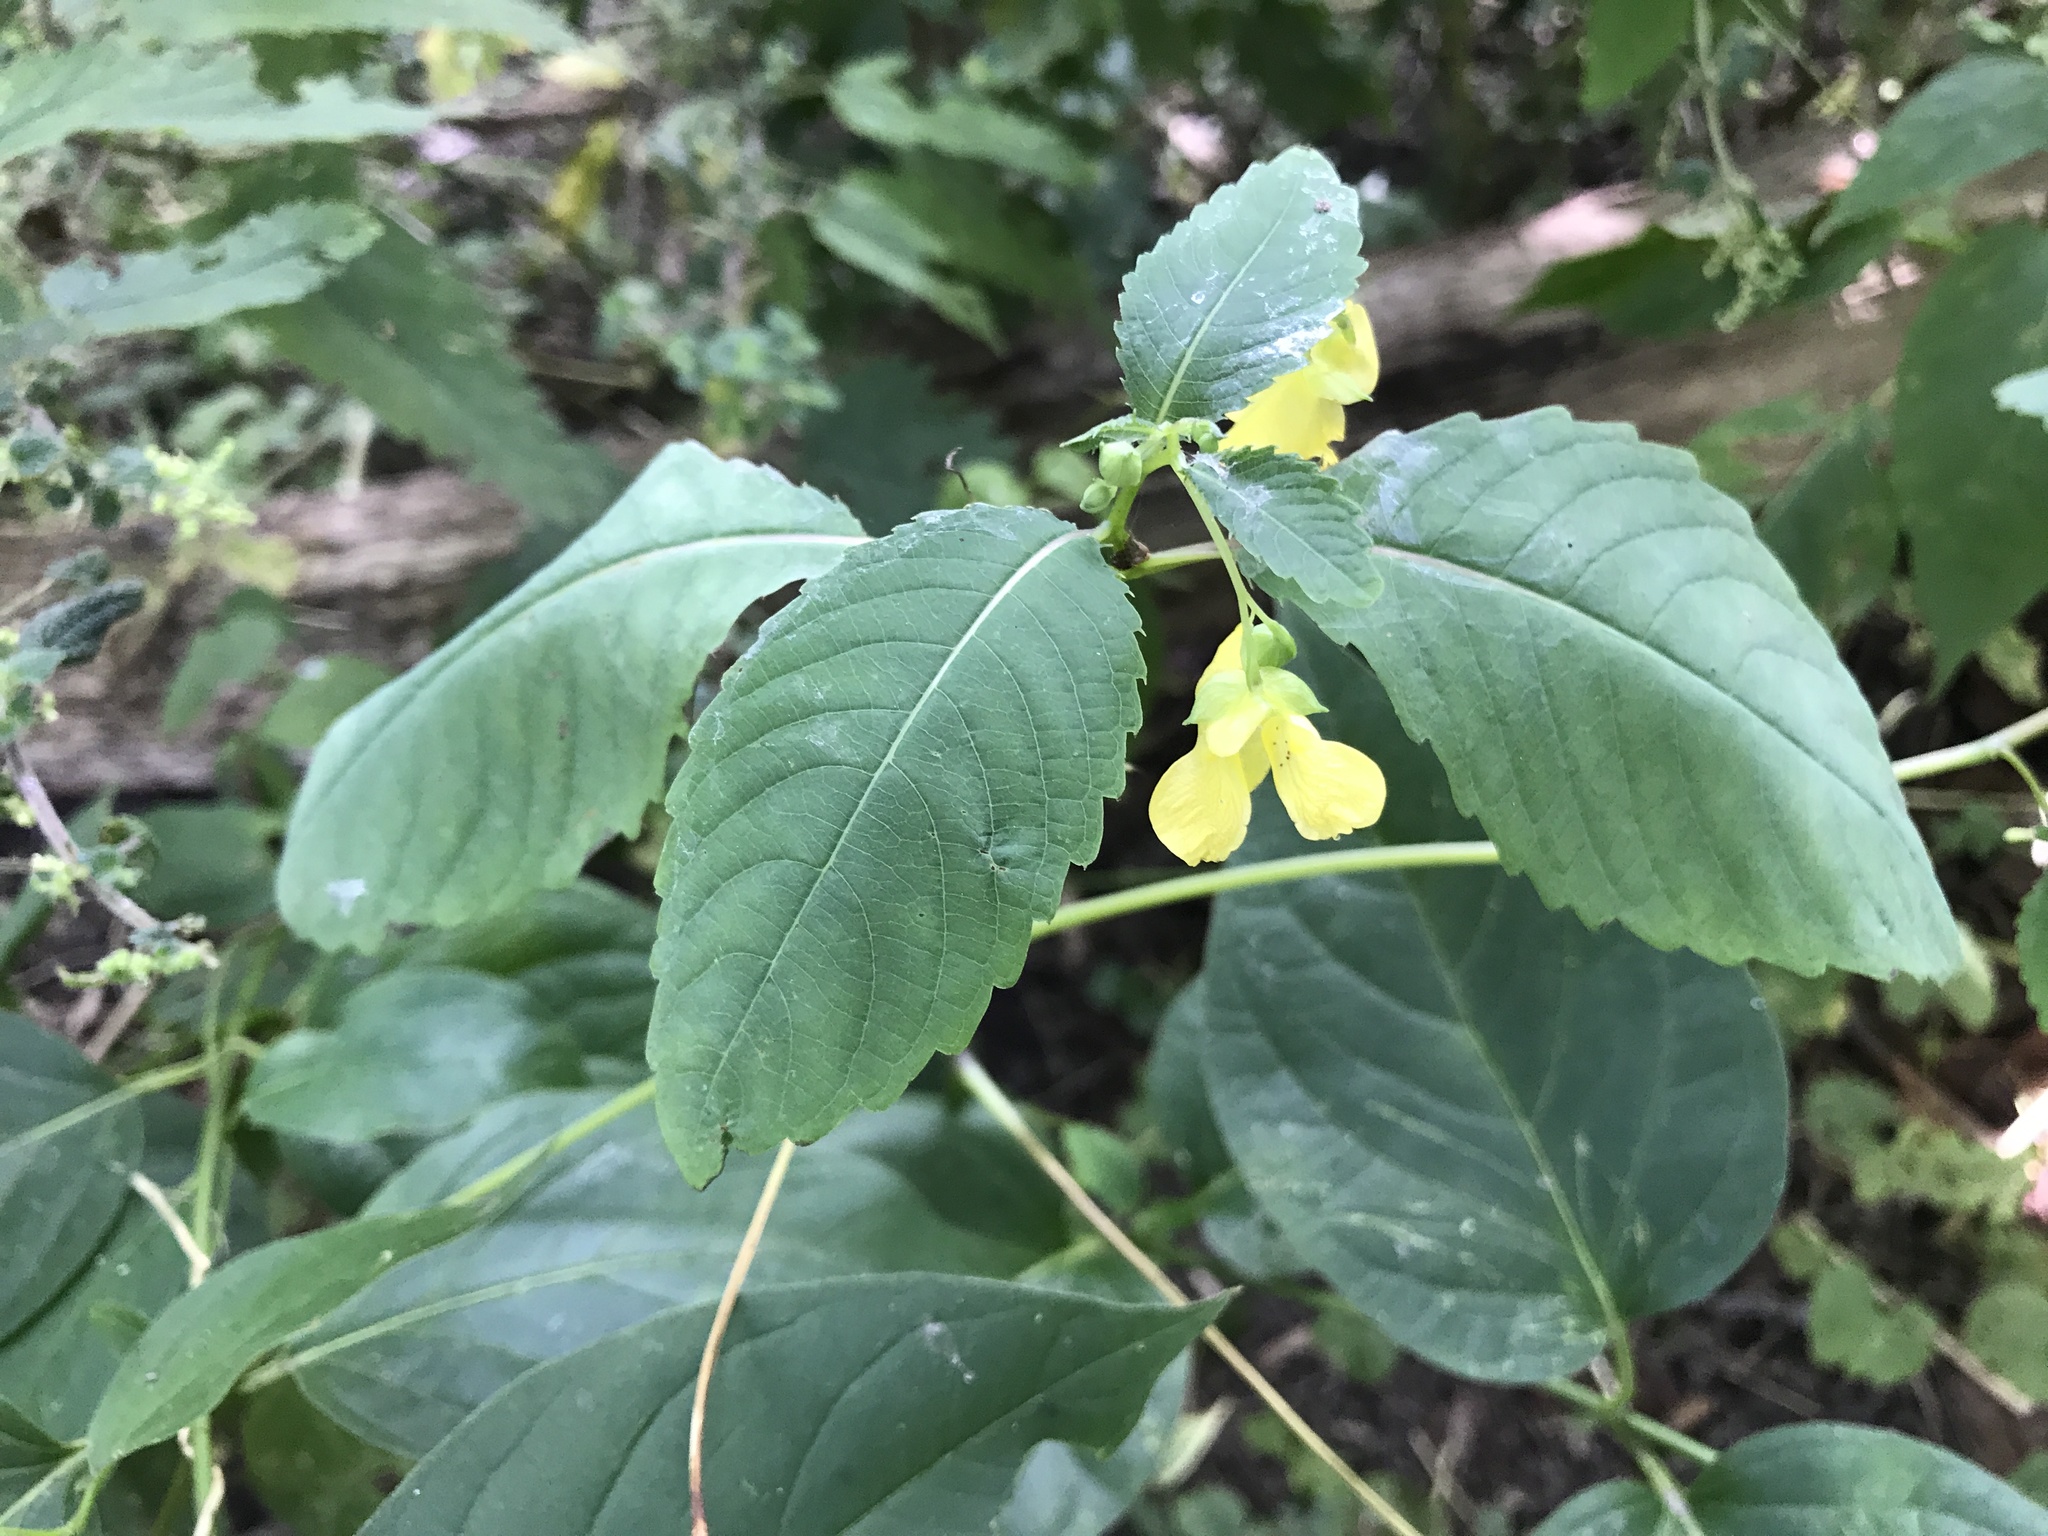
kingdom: Plantae
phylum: Tracheophyta
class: Magnoliopsida
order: Ericales
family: Balsaminaceae
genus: Impatiens
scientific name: Impatiens pallida
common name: Pale snapweed
